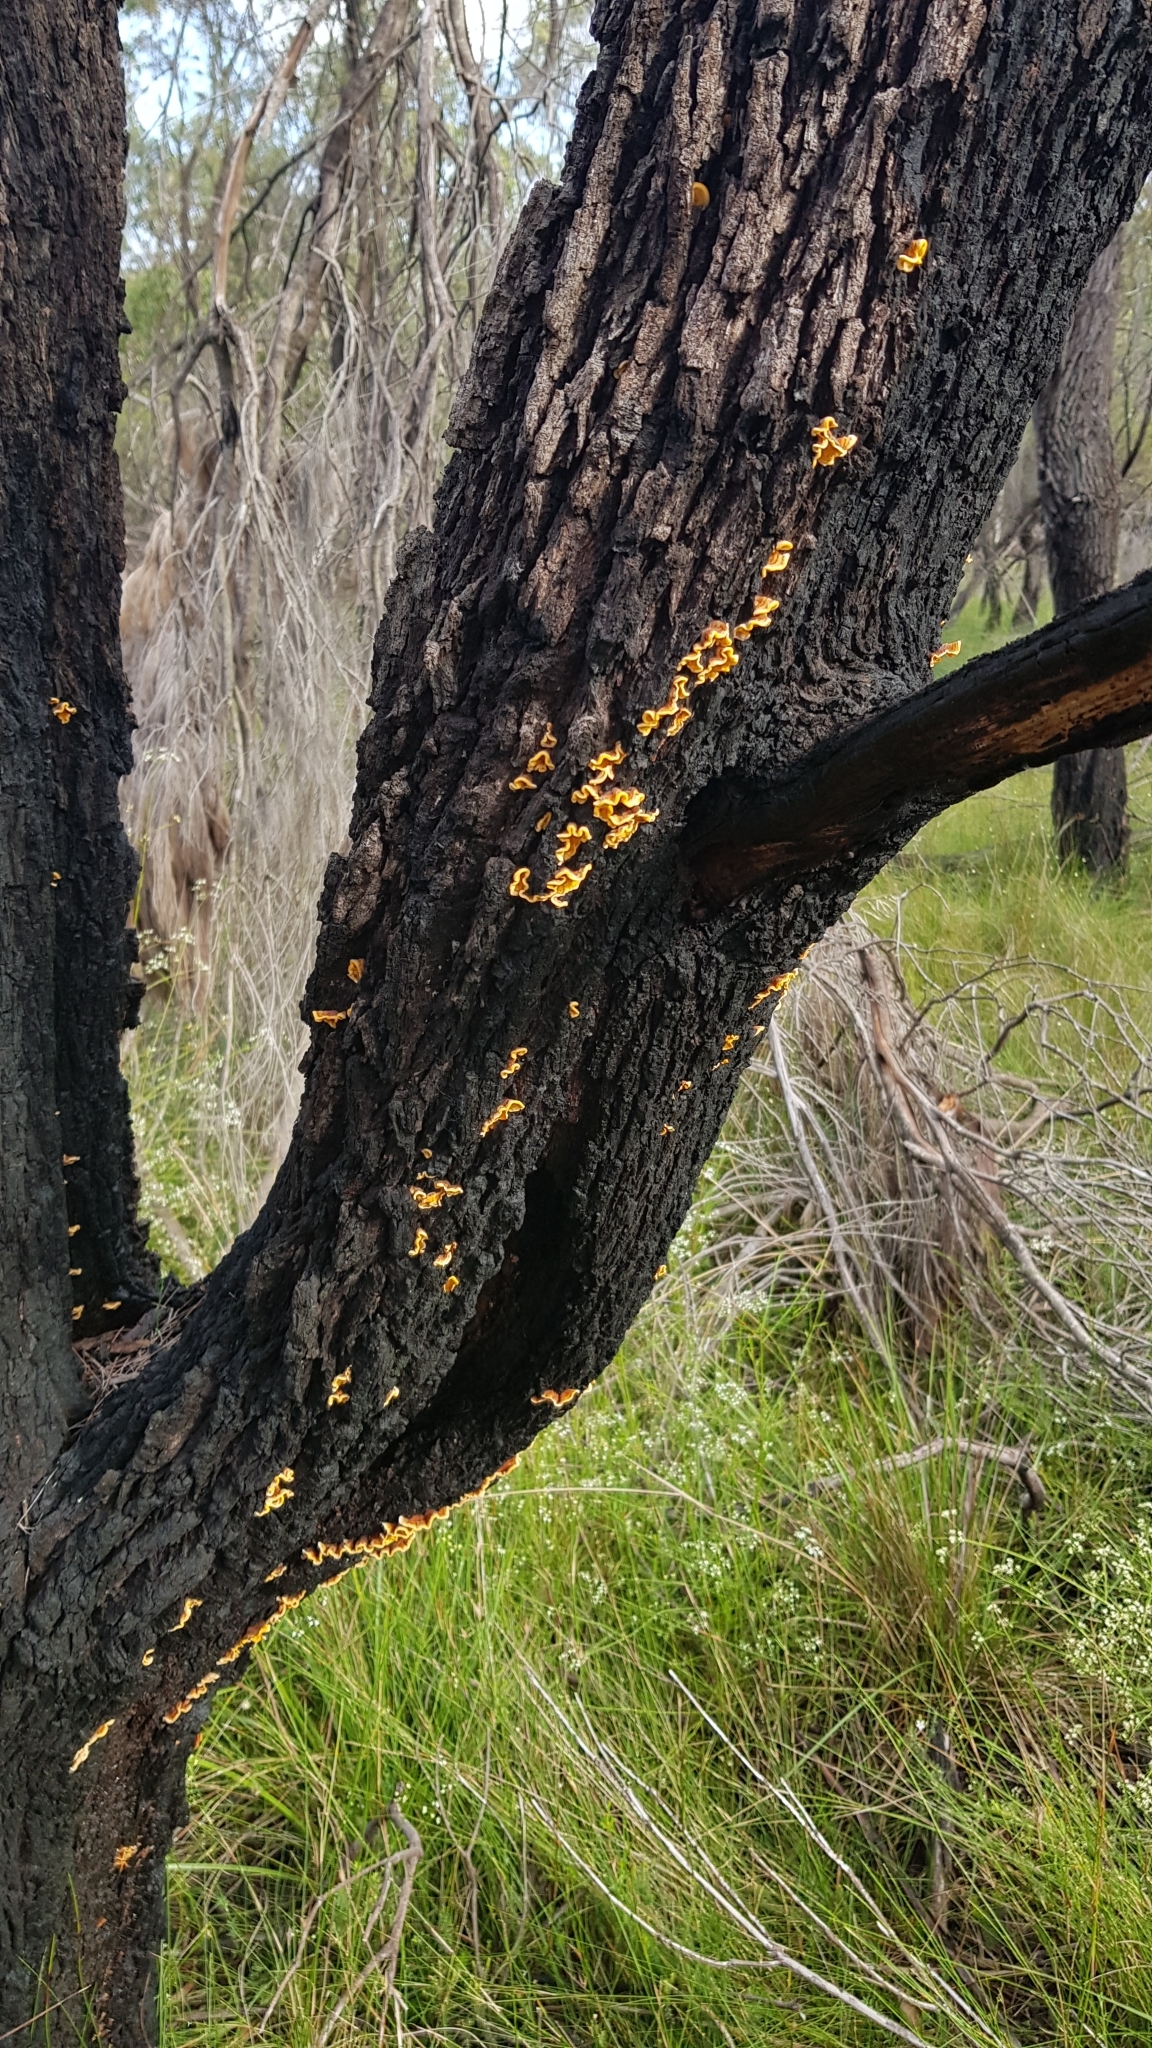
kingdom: Fungi
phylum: Basidiomycota
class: Agaricomycetes
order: Russulales
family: Stereaceae
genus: Stereum
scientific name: Stereum hirsutum
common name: Hairy curtain crust
